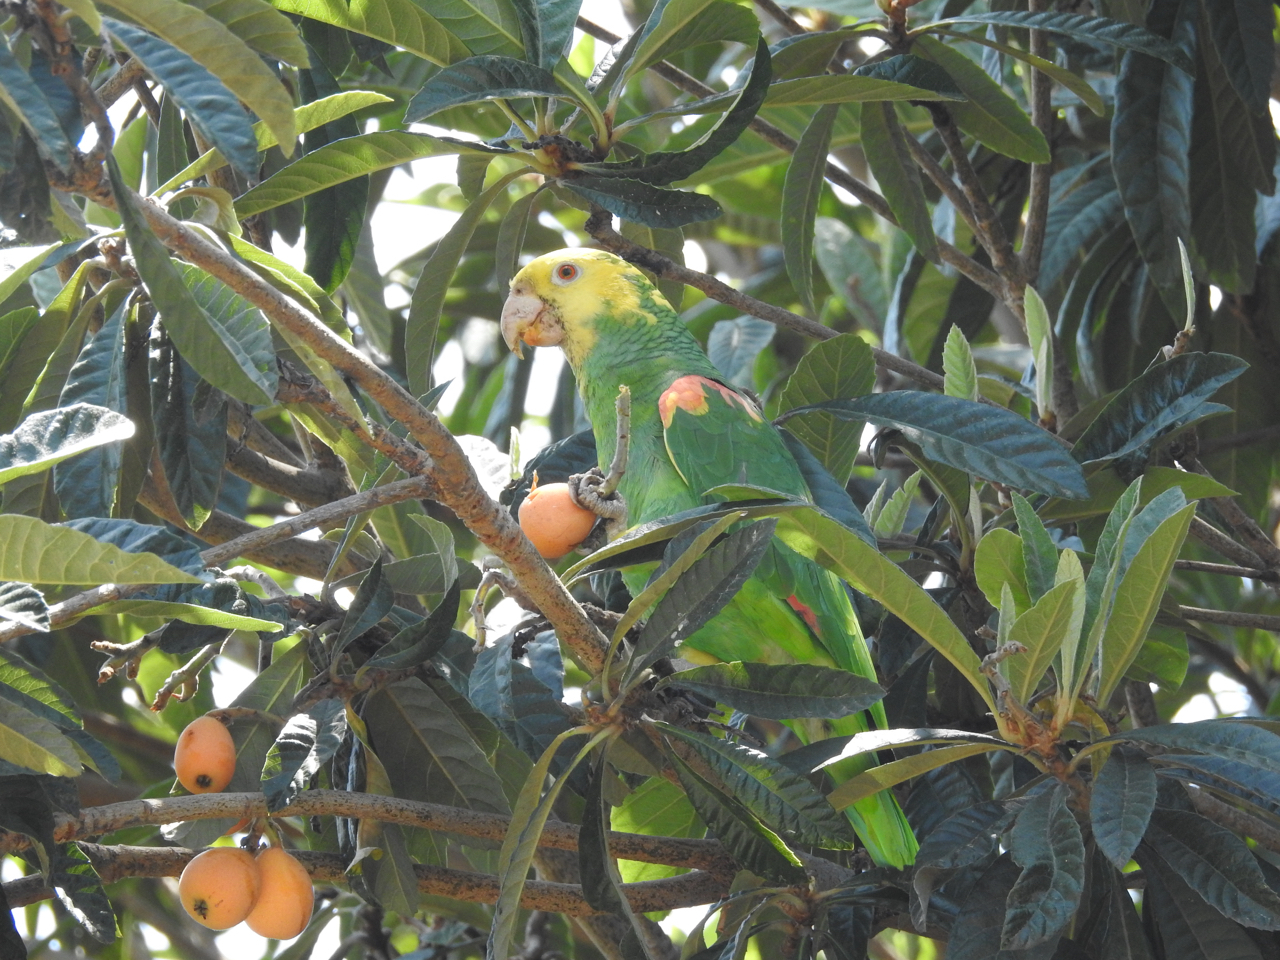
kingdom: Animalia
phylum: Chordata
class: Aves
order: Psittaciformes
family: Psittacidae
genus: Amazona
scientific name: Amazona oratrix
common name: Yellow-headed amazon
